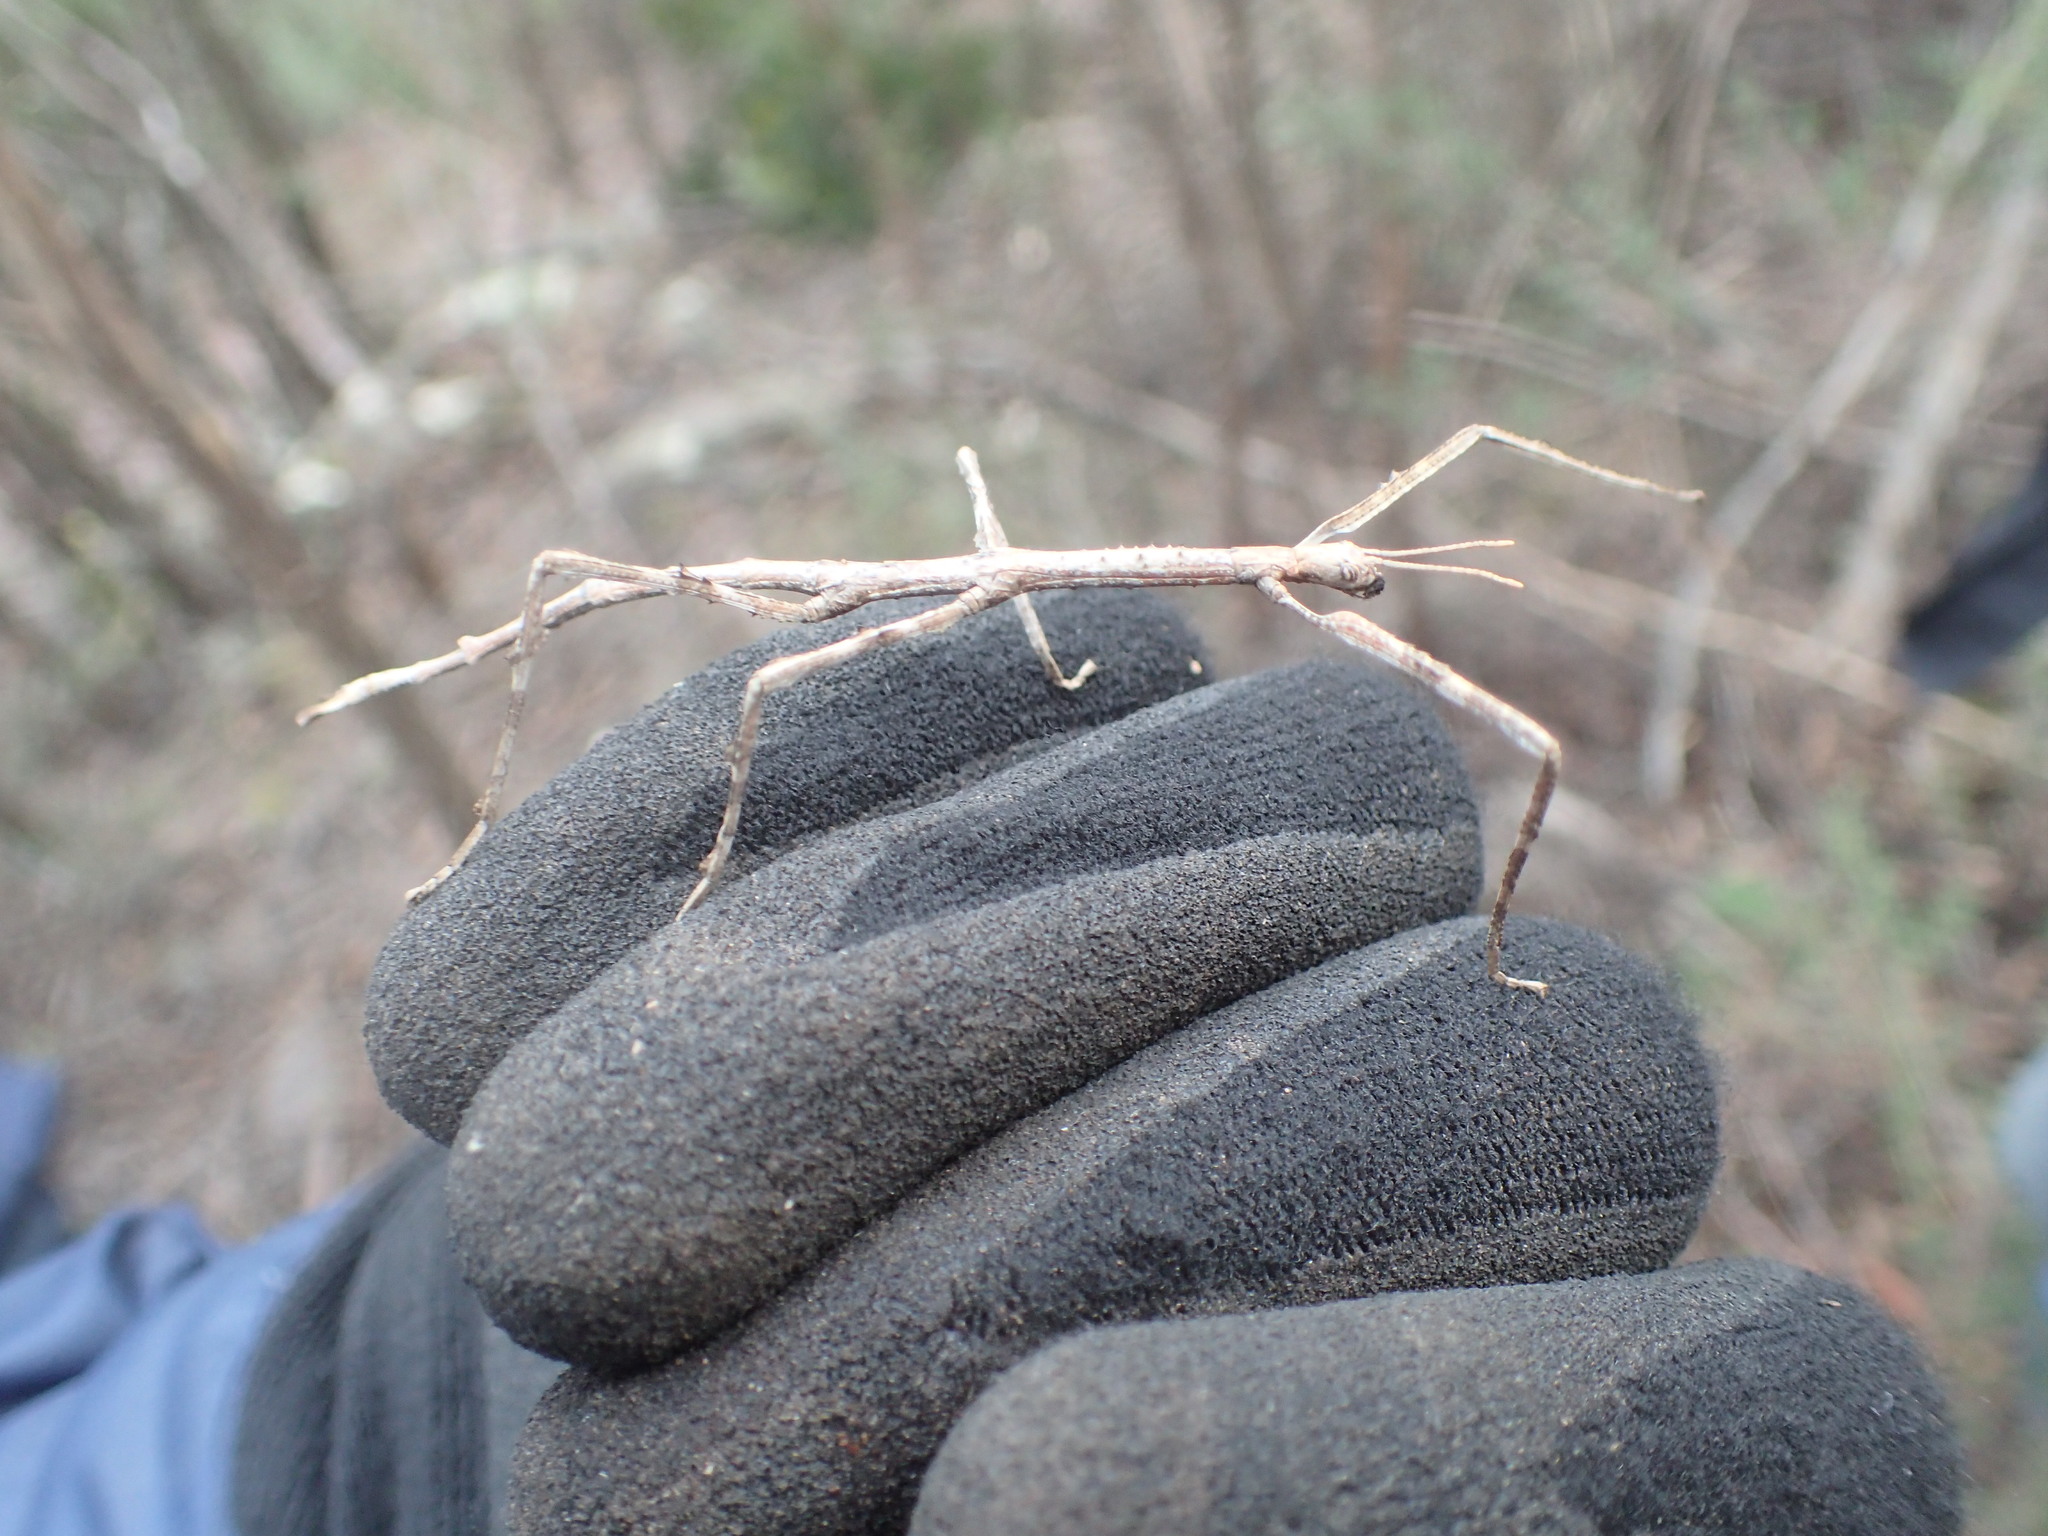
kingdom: Animalia
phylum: Arthropoda
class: Insecta
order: Phasmida
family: Phasmatidae
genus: Ctenomorpha
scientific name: Ctenomorpha marginipennis
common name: Margined-winged stick-insect
